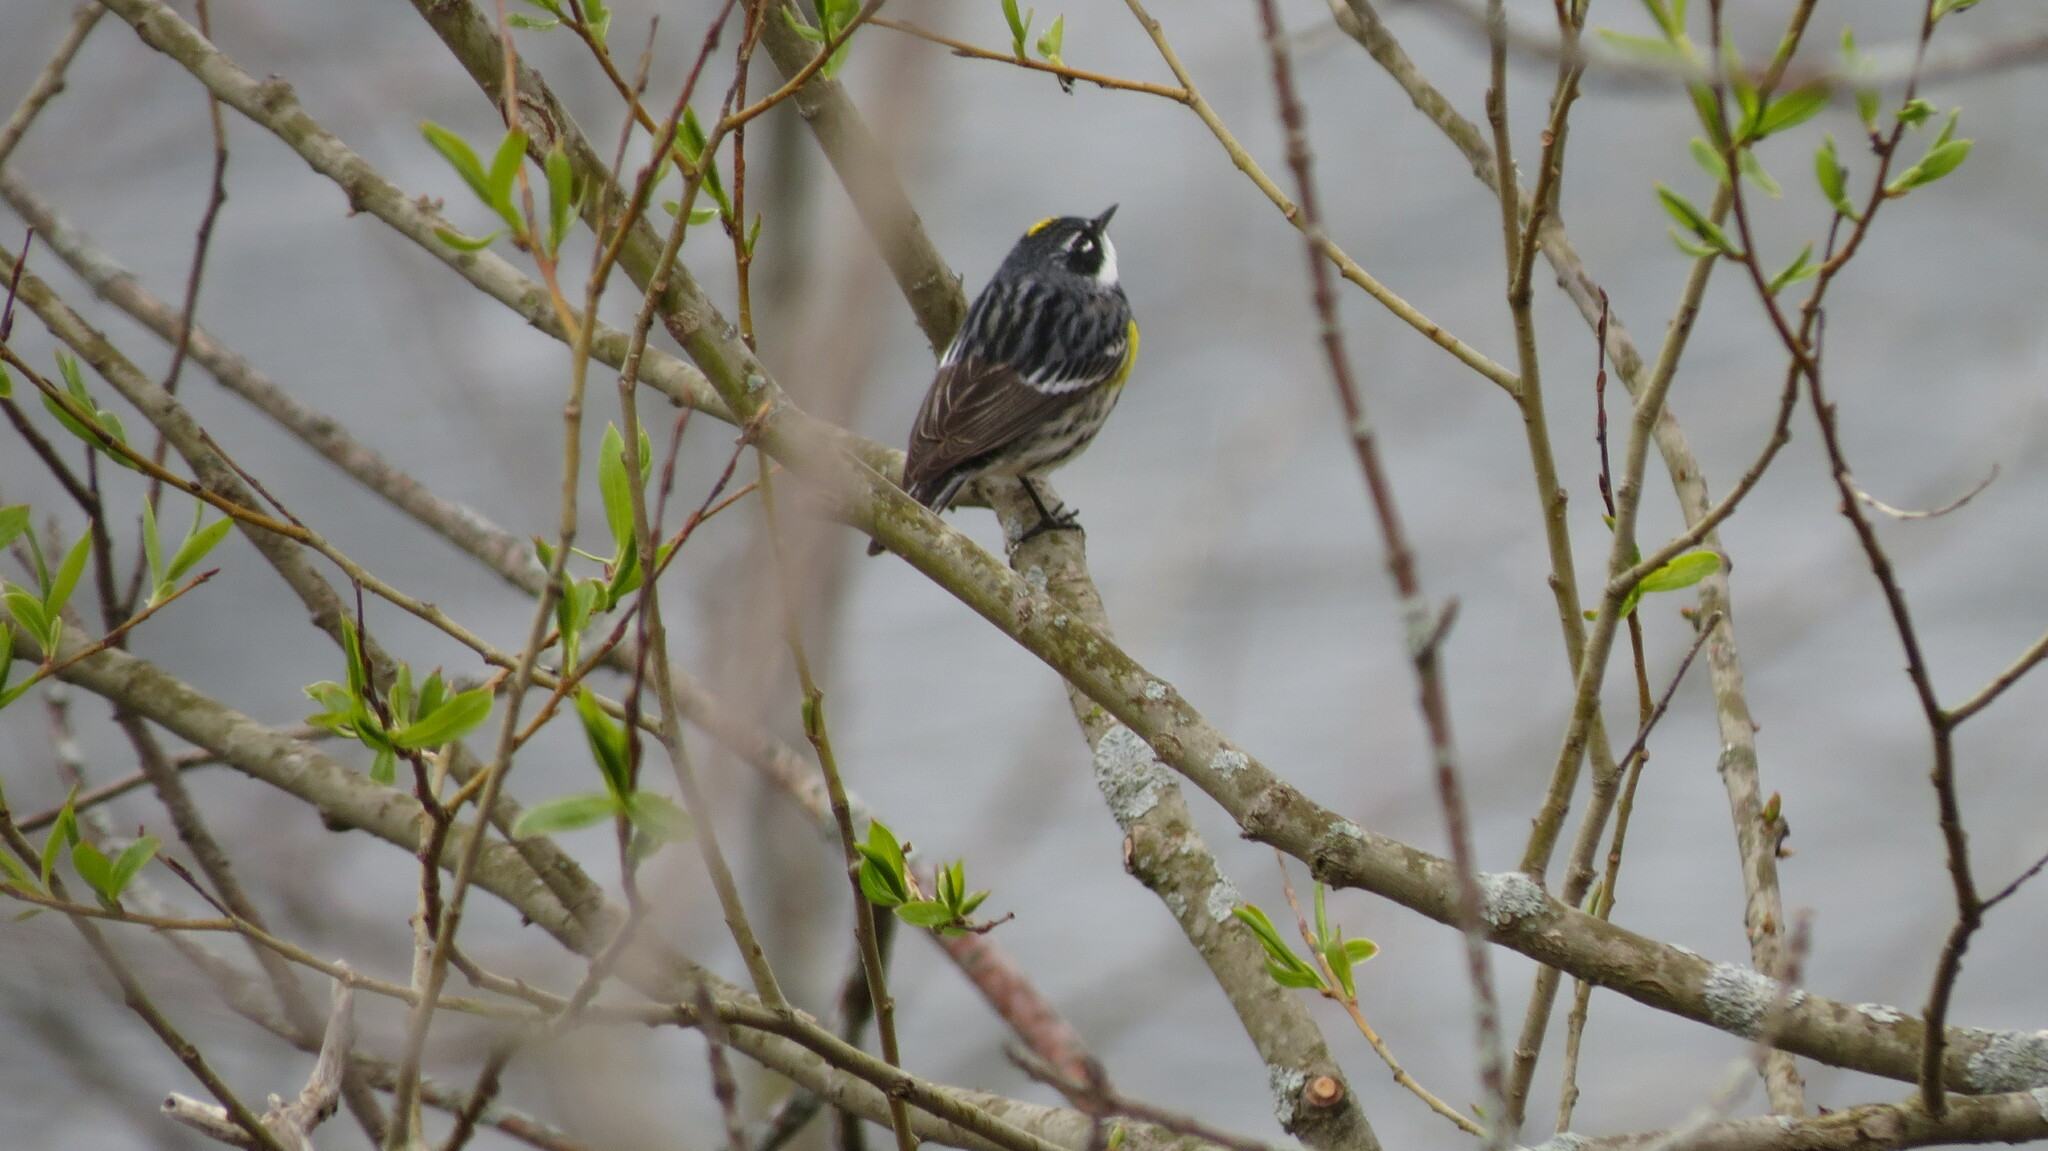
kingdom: Animalia
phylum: Chordata
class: Aves
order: Passeriformes
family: Parulidae
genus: Setophaga
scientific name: Setophaga coronata
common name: Myrtle warbler
